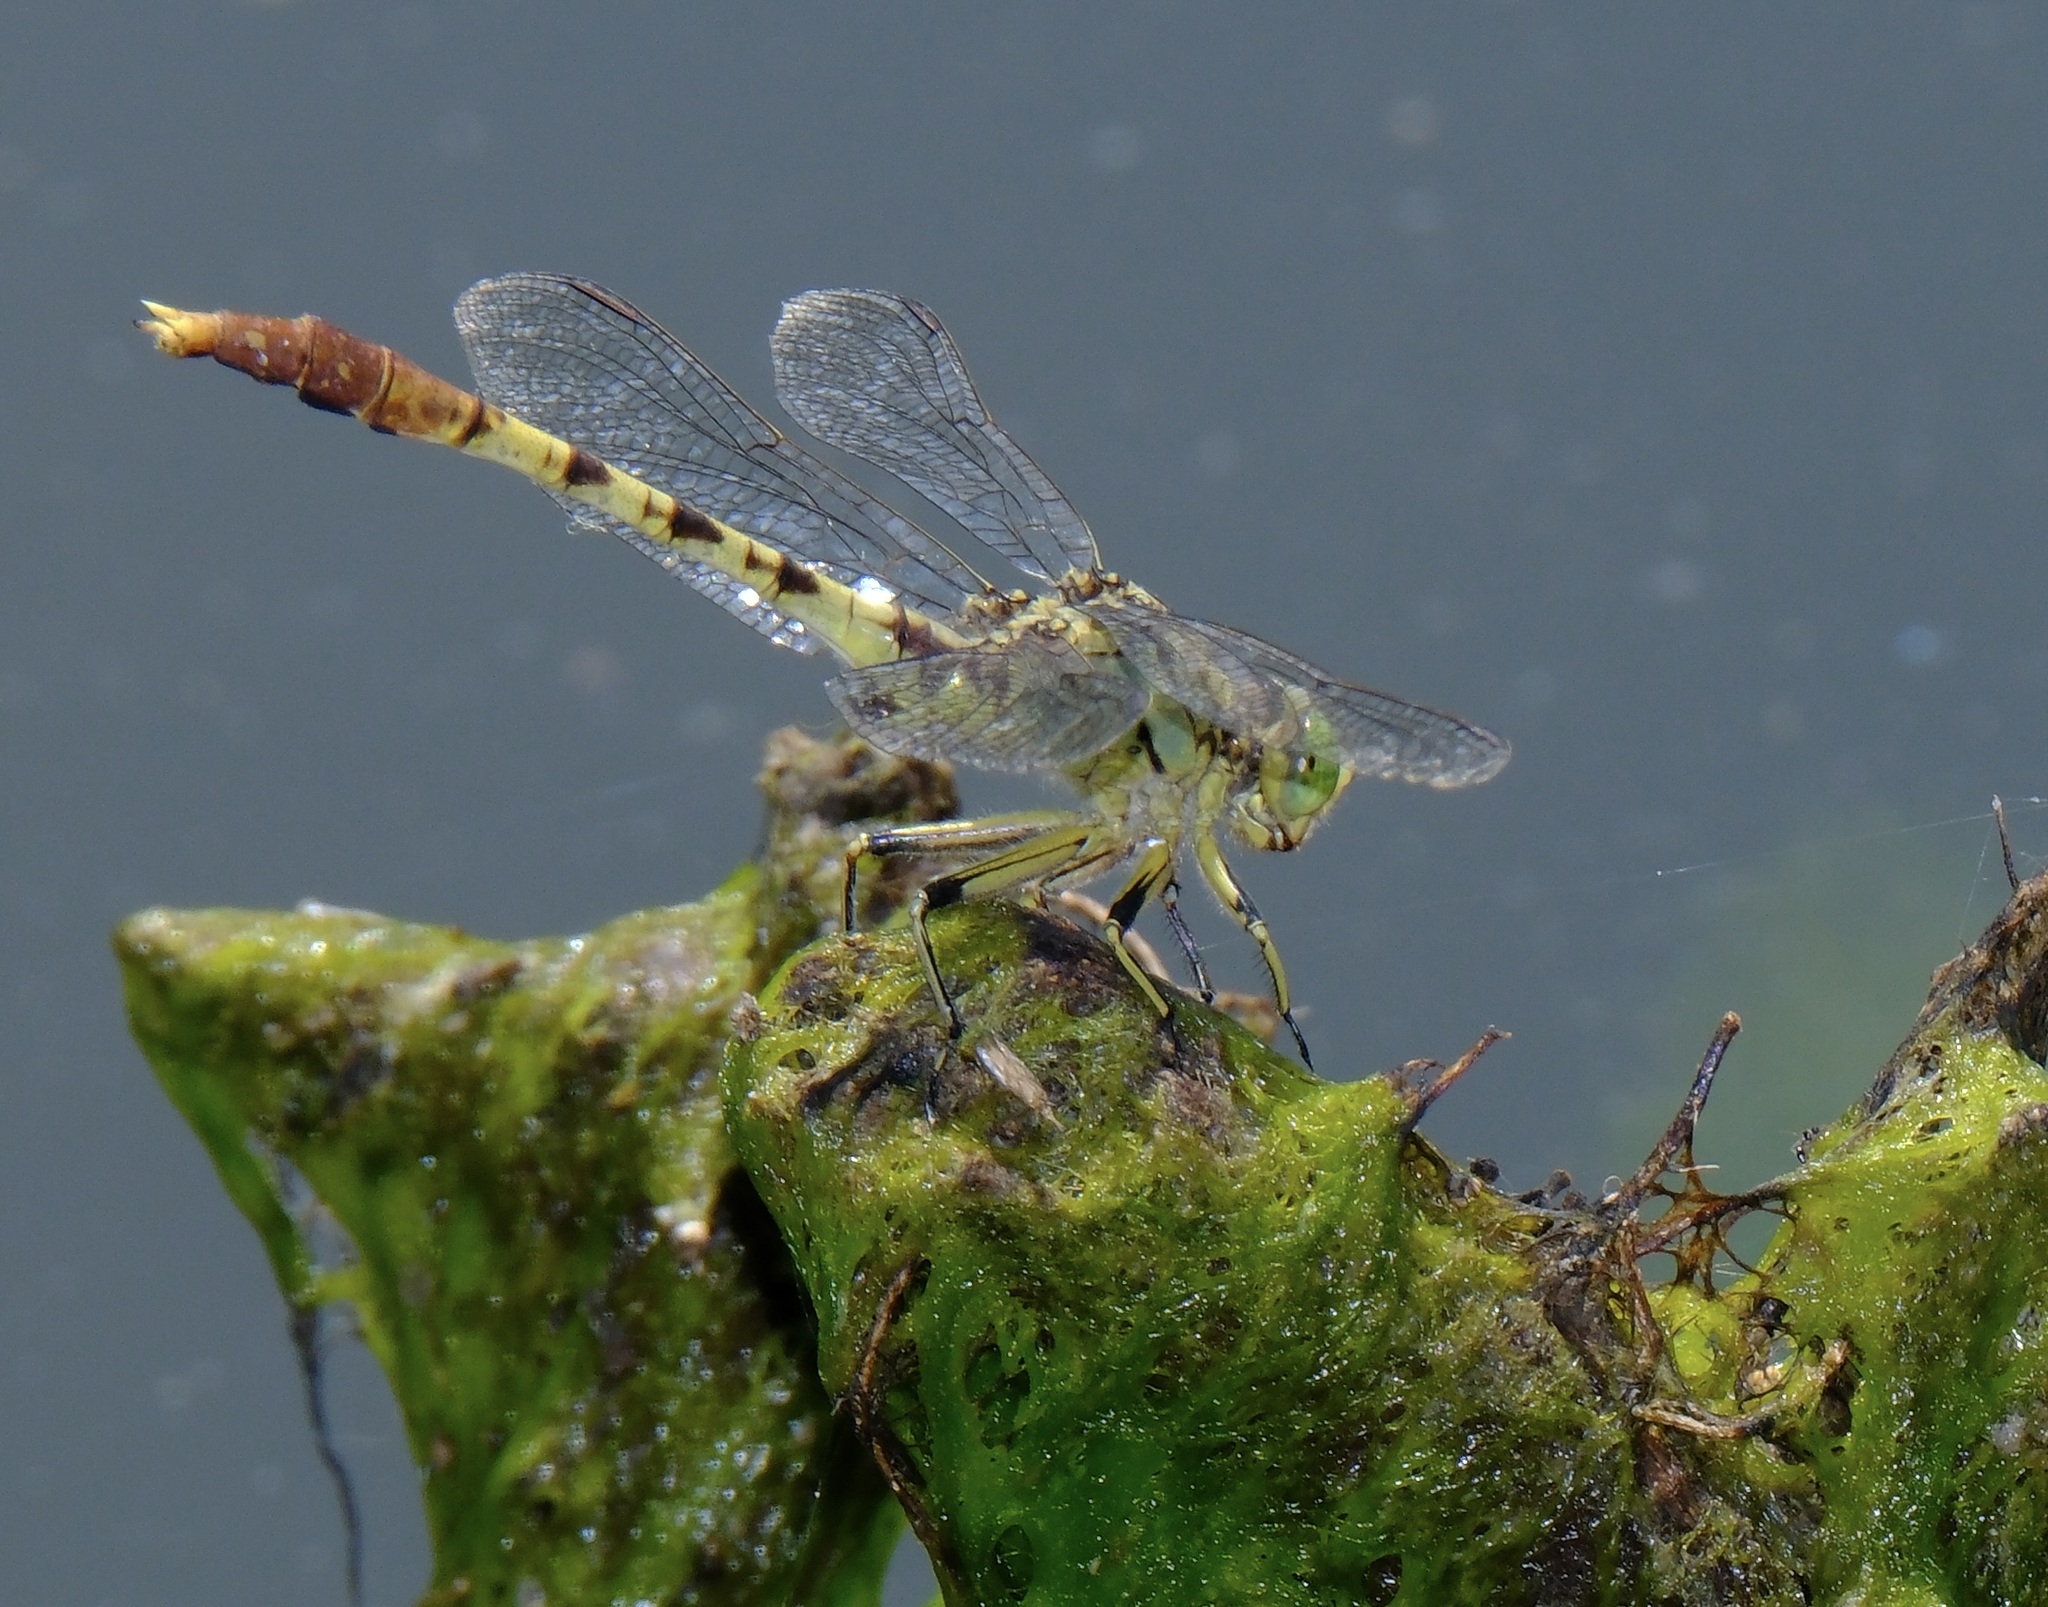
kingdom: Animalia
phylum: Arthropoda
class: Insecta
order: Odonata
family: Gomphidae
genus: Arigomphus
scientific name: Arigomphus submedianus
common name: Jade clubtail
